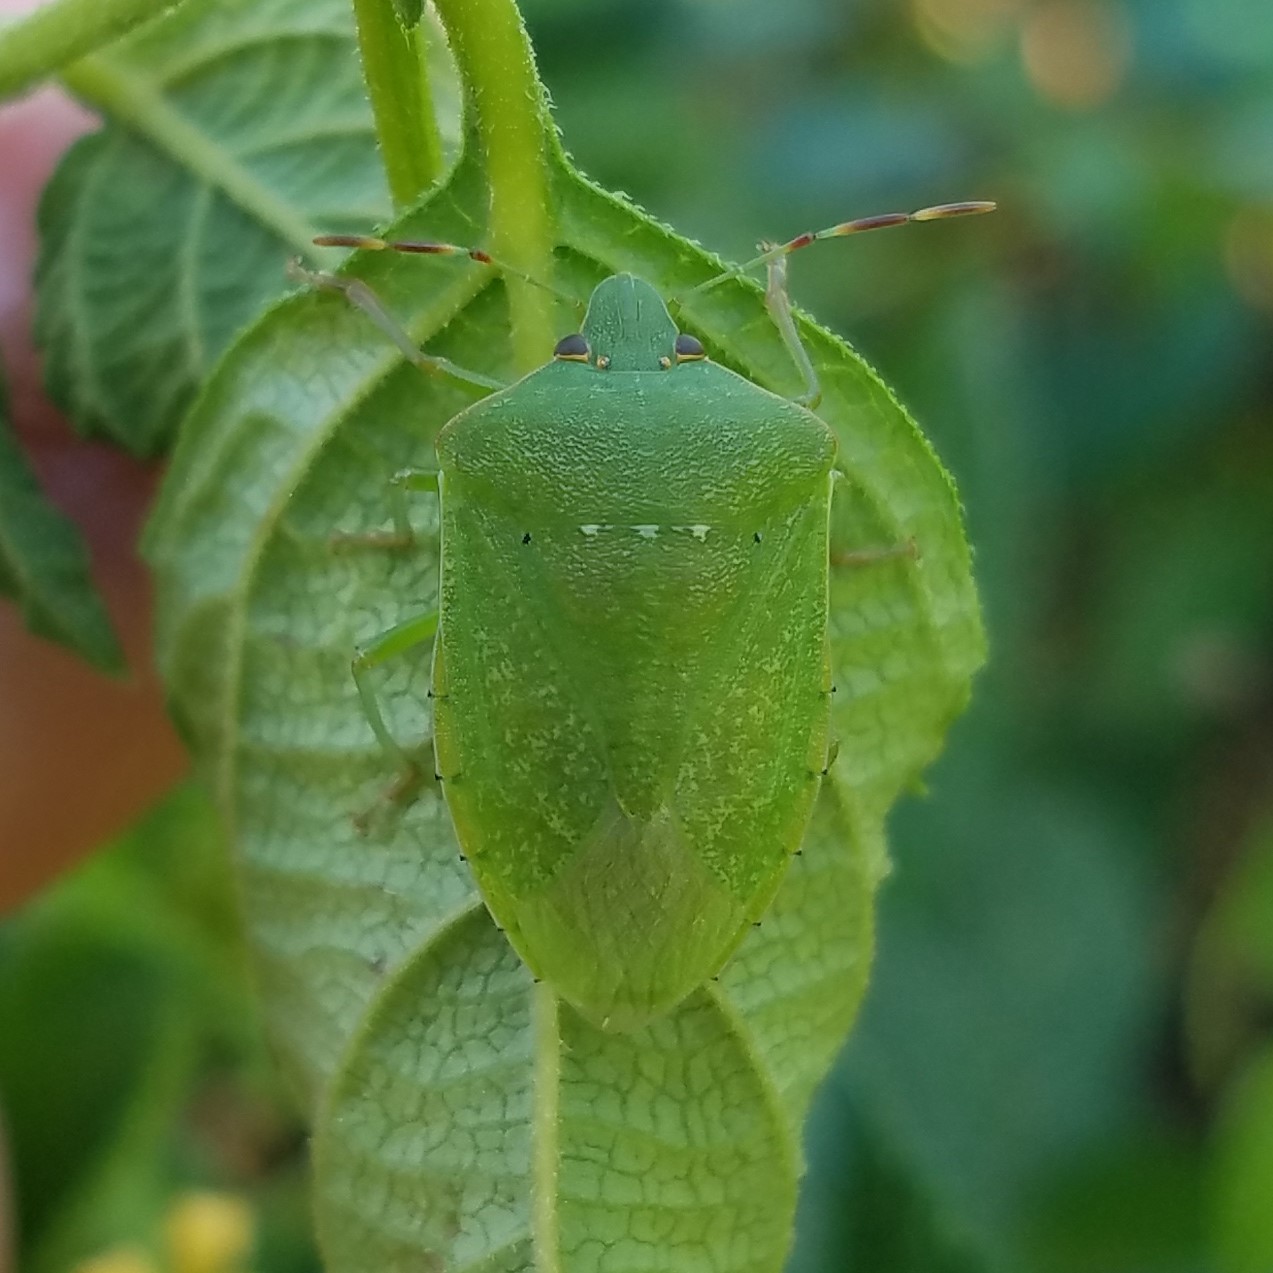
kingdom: Animalia
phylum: Arthropoda
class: Insecta
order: Hemiptera
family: Pentatomidae
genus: Nezara
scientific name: Nezara viridula
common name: Southern green stink bug
